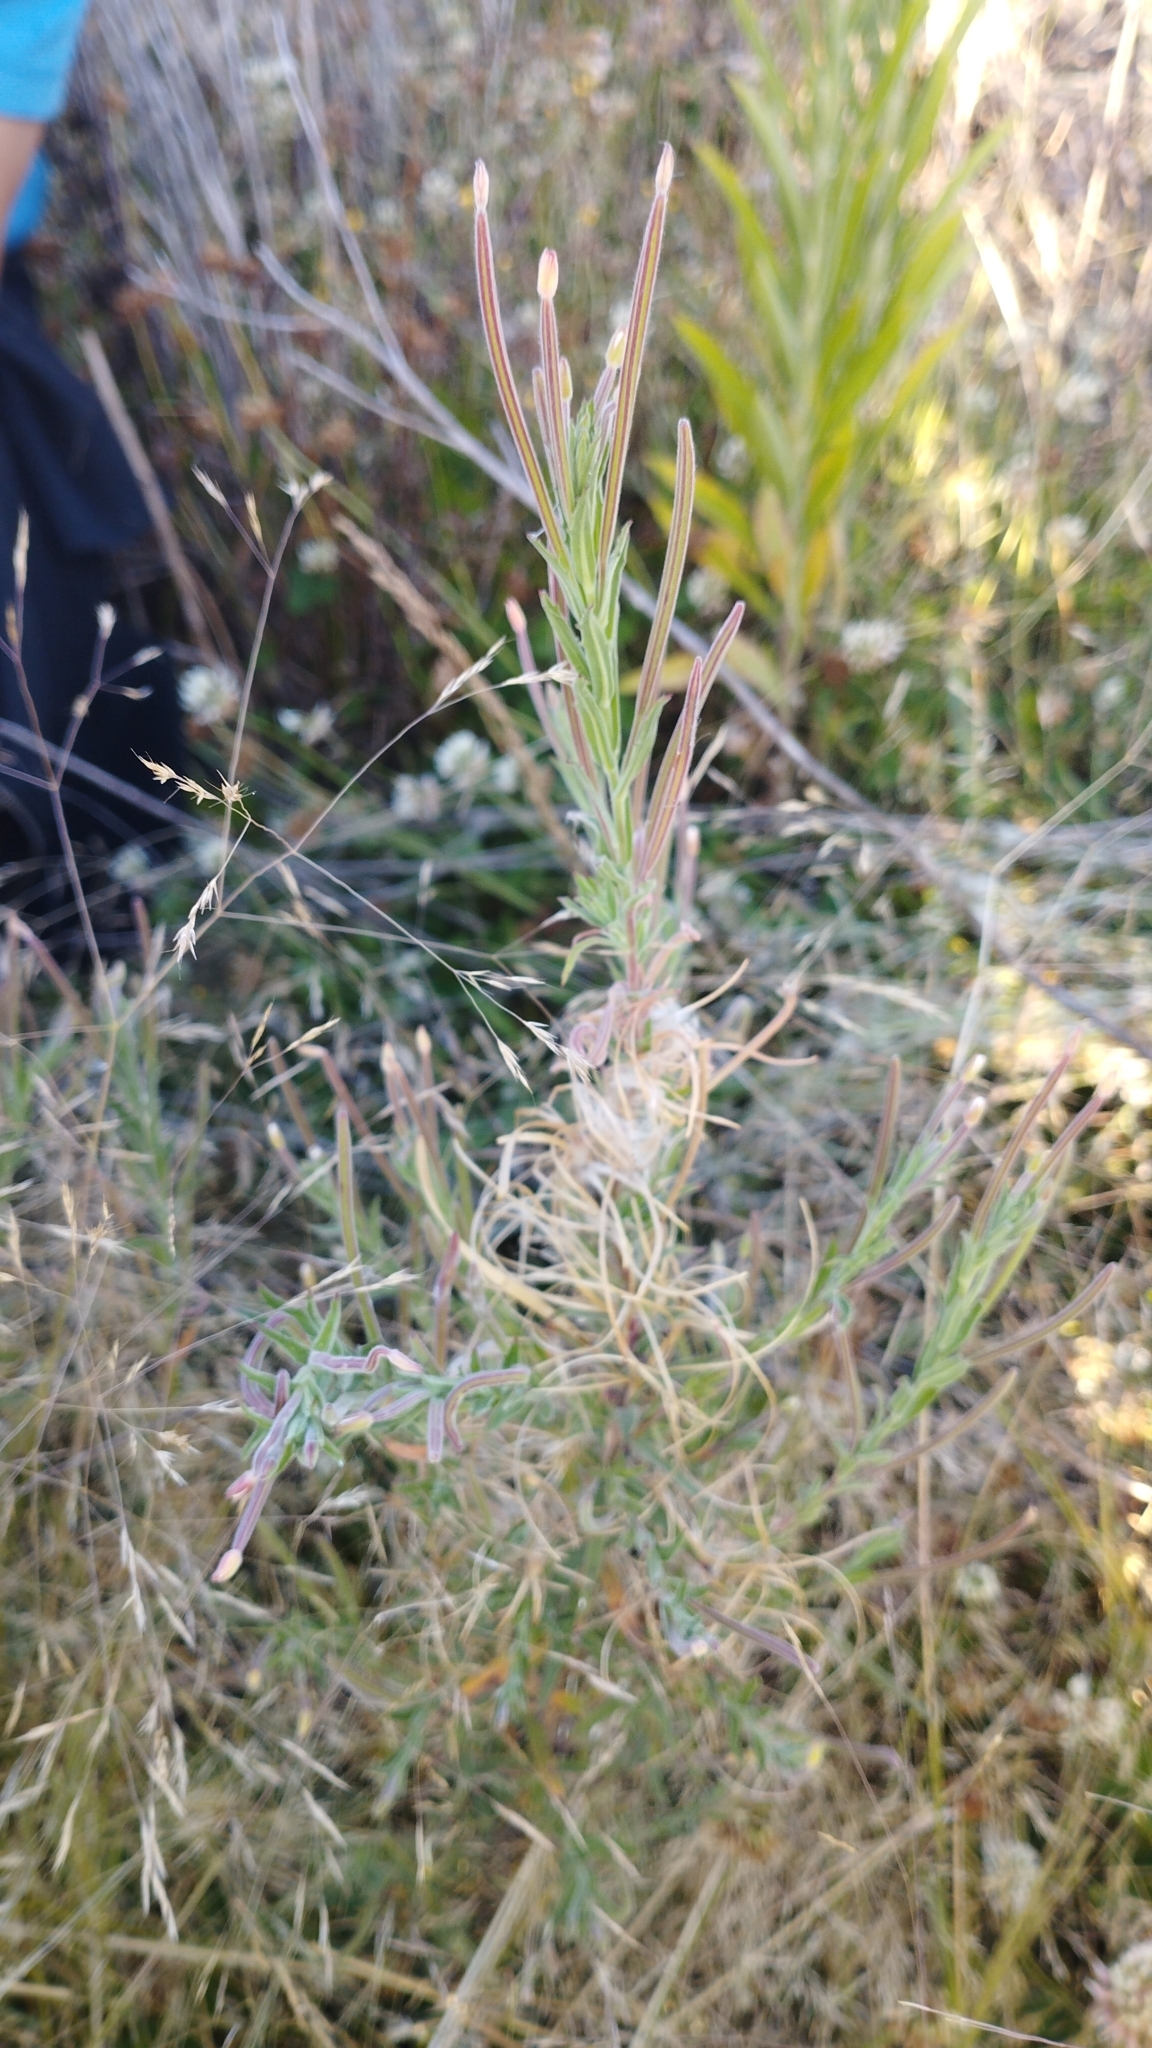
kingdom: Plantae
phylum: Tracheophyta
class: Magnoliopsida
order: Myrtales
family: Onagraceae
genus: Epilobium
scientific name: Epilobium hirtigerum
